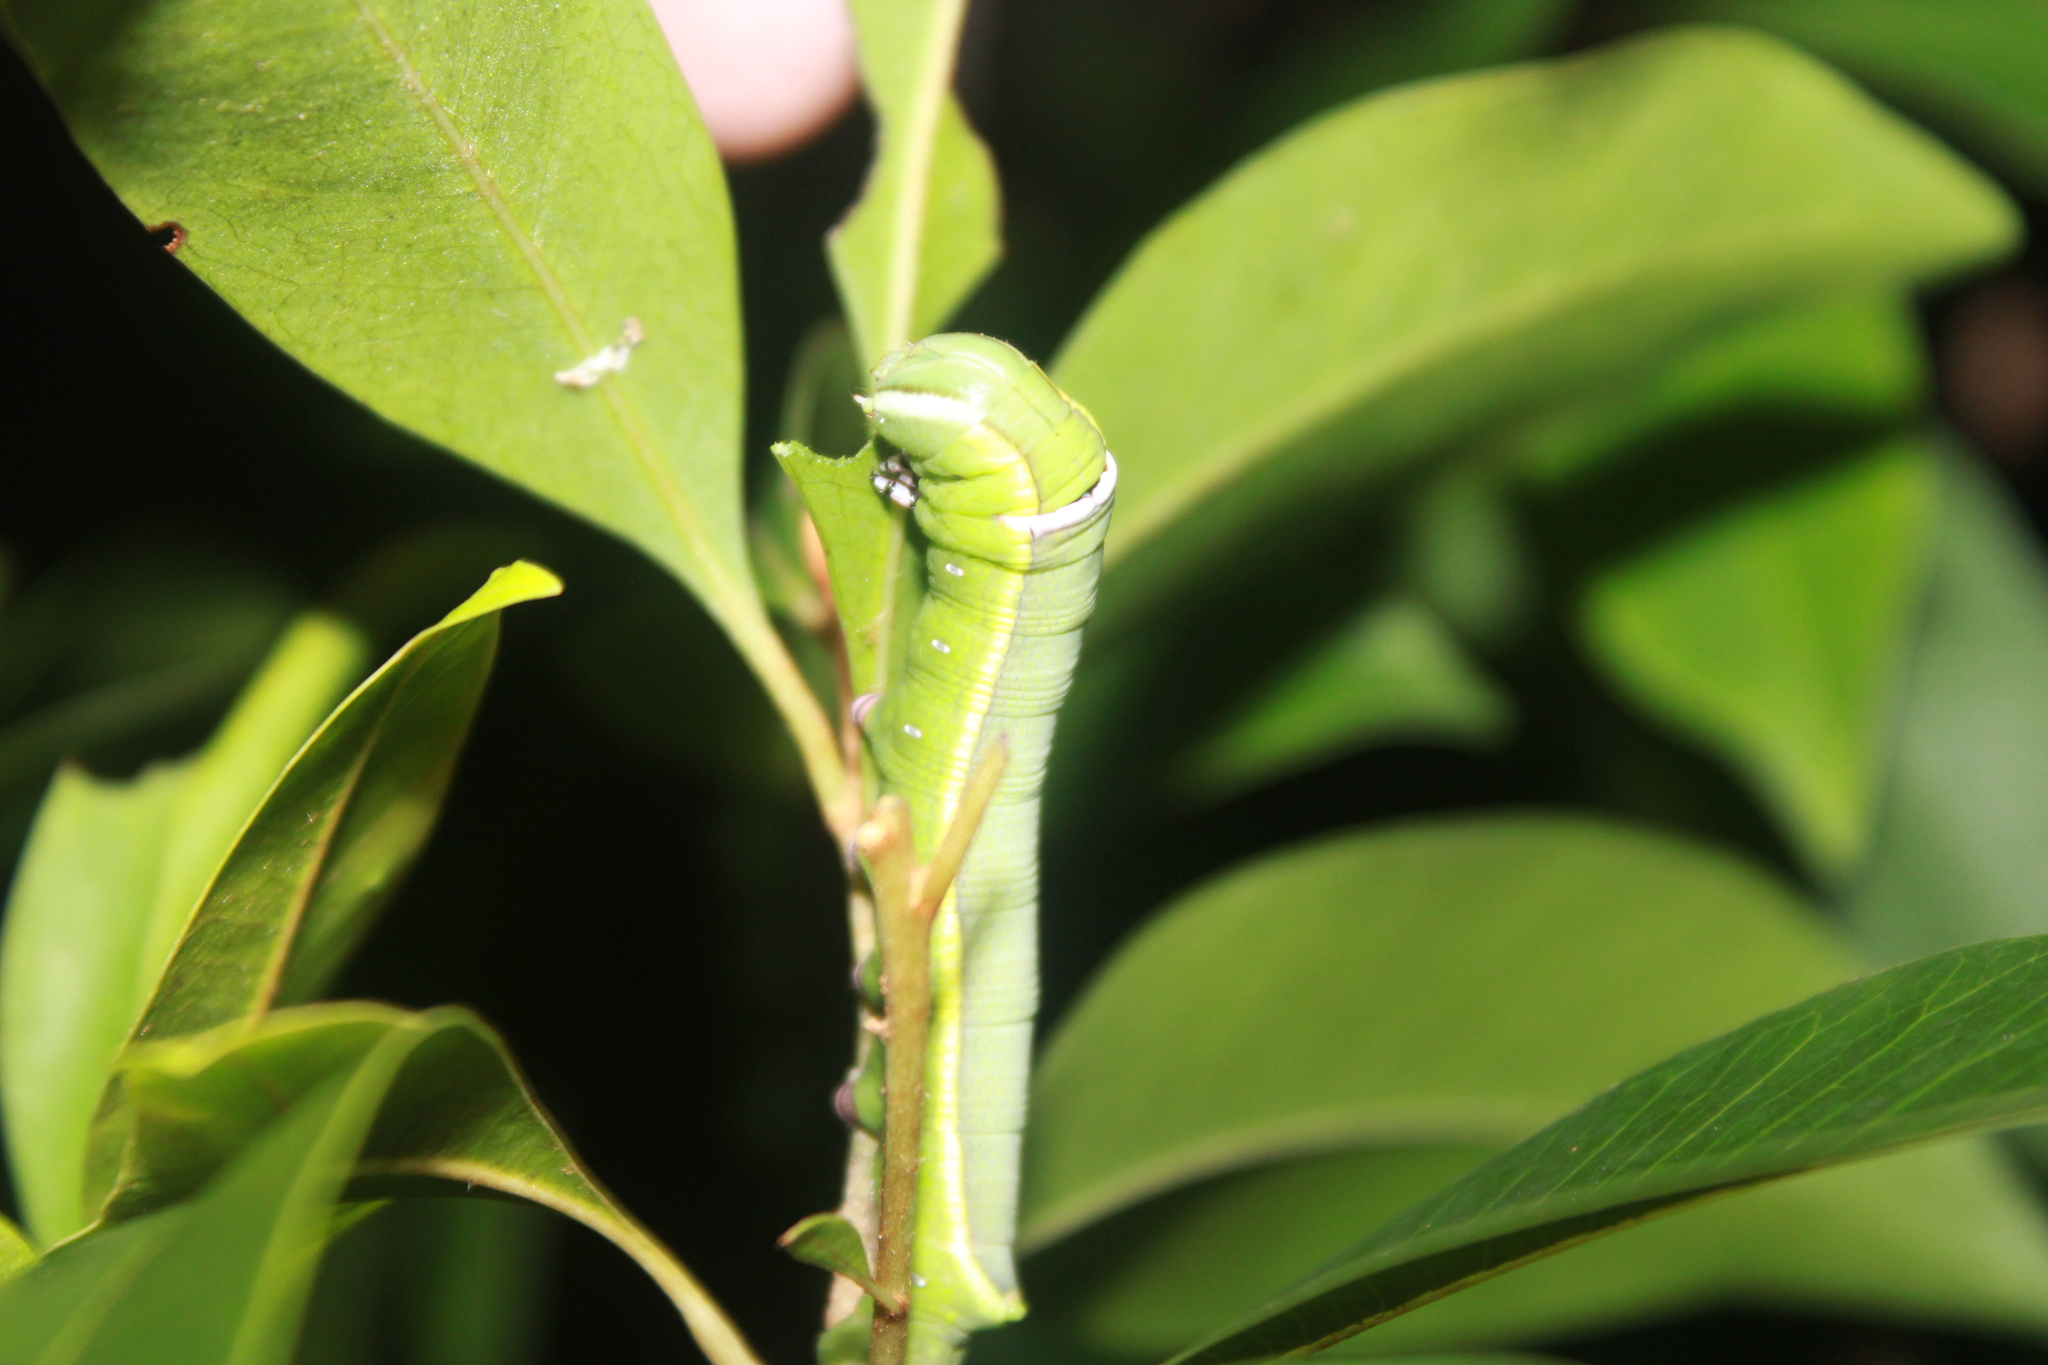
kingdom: Animalia
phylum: Arthropoda
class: Insecta
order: Lepidoptera
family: Sphingidae
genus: Erinnyis
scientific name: Erinnyis ello
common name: Ello sphinx
